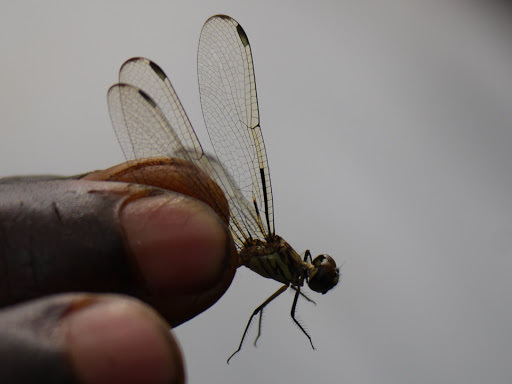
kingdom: Animalia
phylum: Arthropoda
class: Insecta
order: Odonata
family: Libellulidae
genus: Hemistigma
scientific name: Hemistigma albipunctum
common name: African pied-spot
